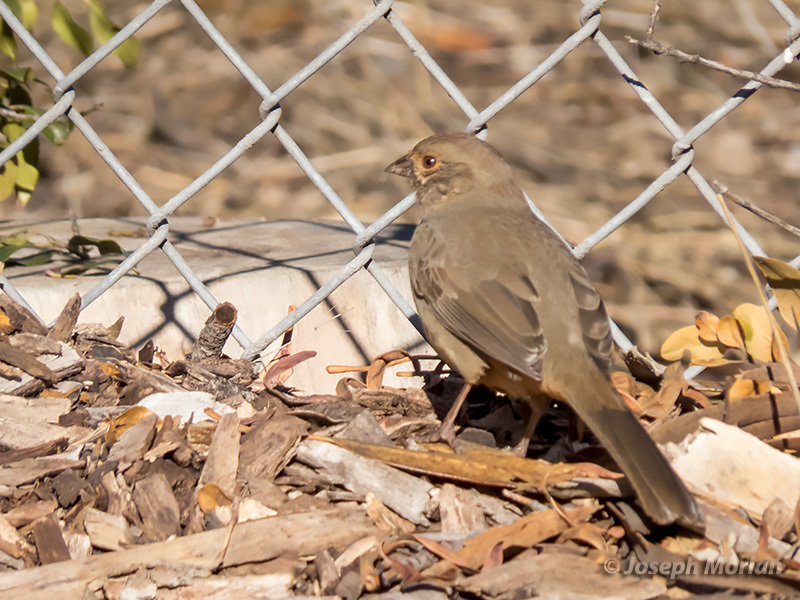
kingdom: Animalia
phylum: Chordata
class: Aves
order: Passeriformes
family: Passerellidae
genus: Melozone
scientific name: Melozone crissalis
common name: California towhee
